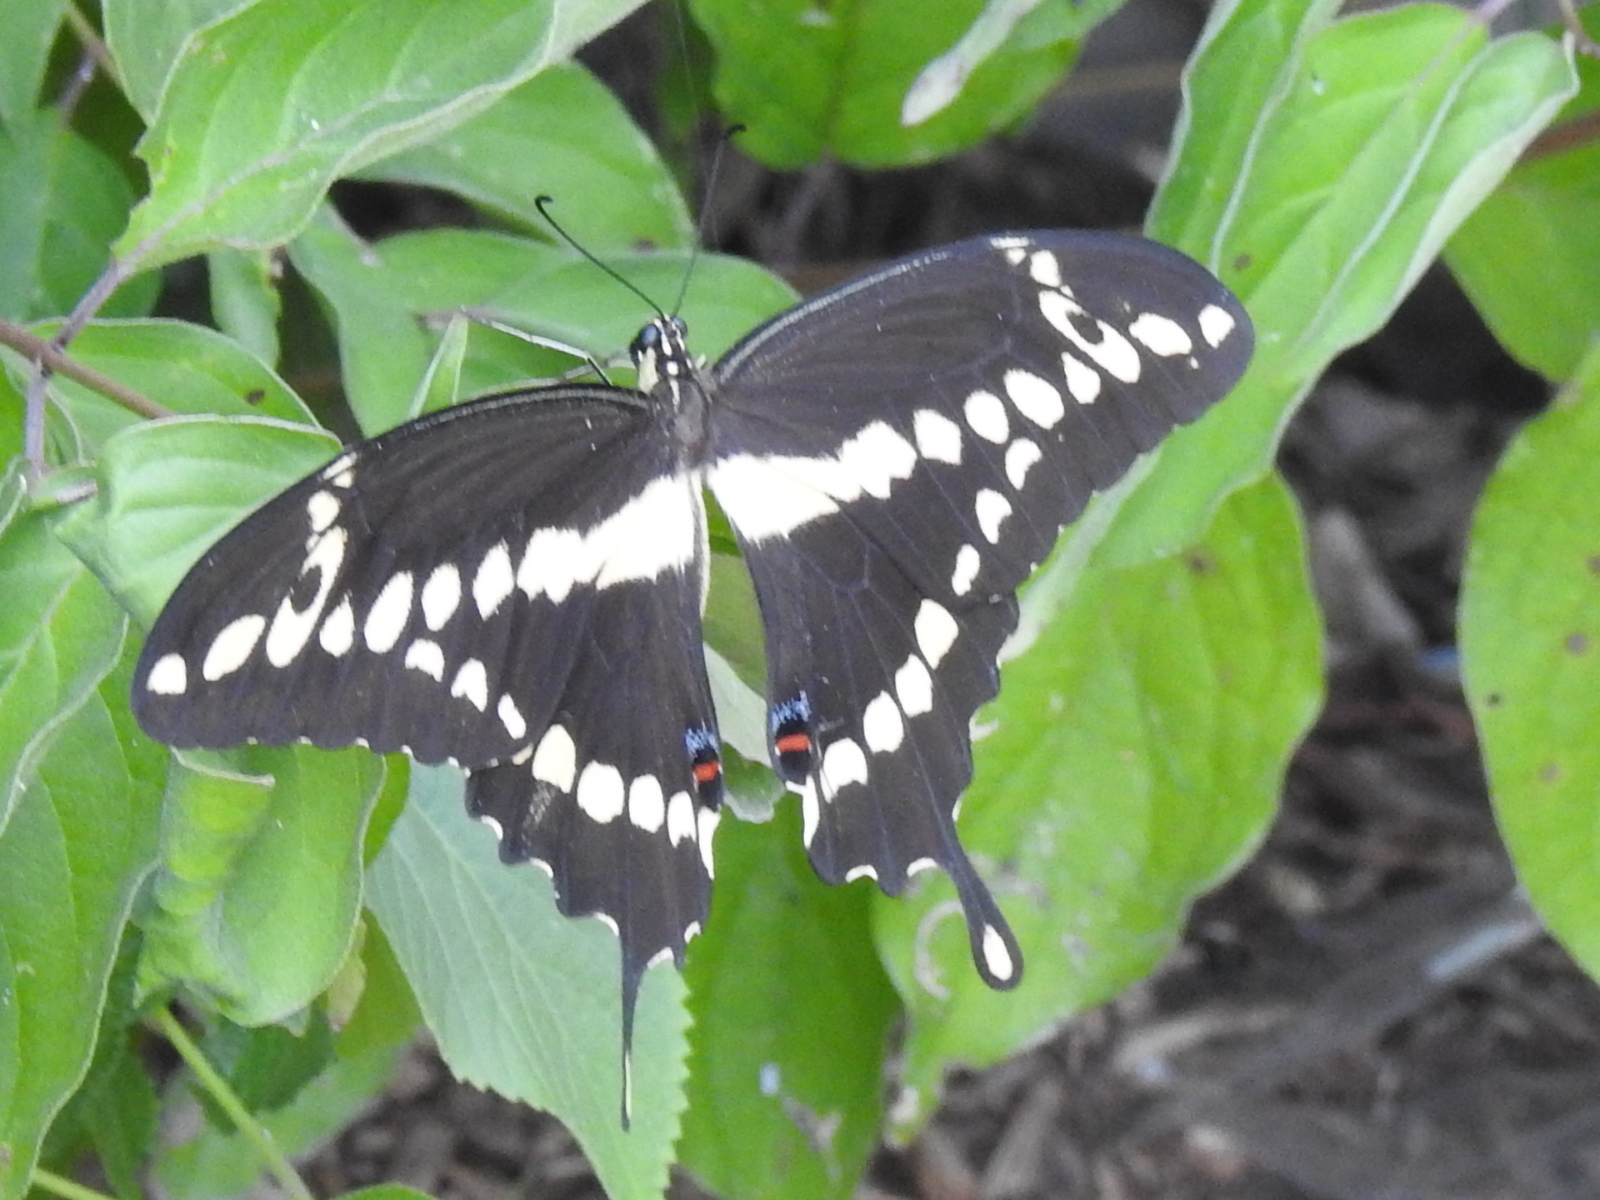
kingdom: Animalia
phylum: Arthropoda
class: Insecta
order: Lepidoptera
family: Papilionidae
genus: Papilio
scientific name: Papilio cresphontes
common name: Giant swallowtail
